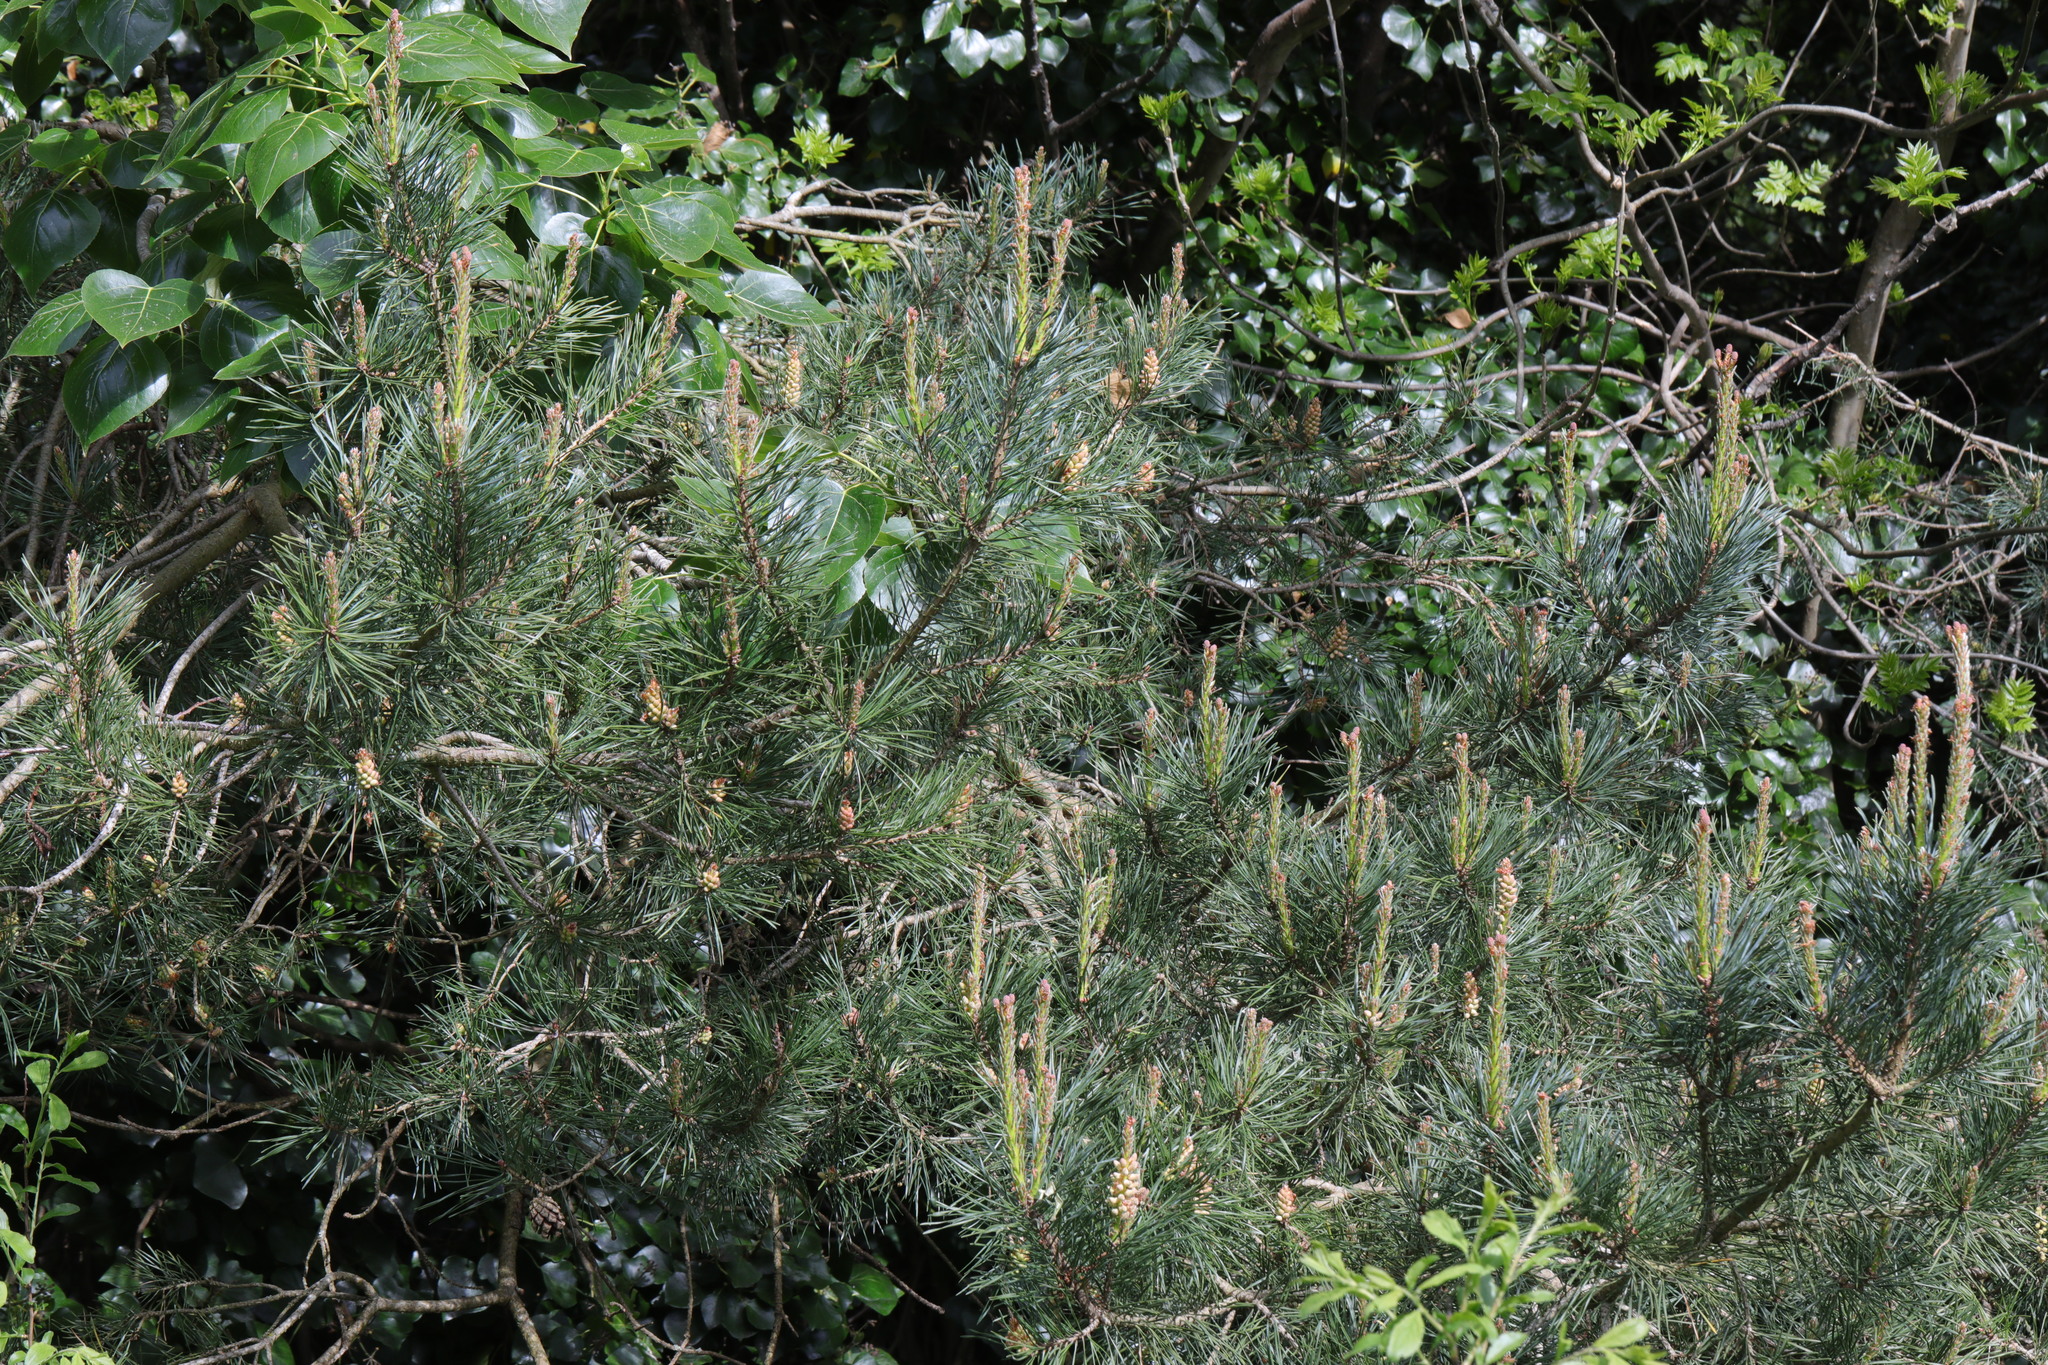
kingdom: Plantae
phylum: Tracheophyta
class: Pinopsida
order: Pinales
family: Pinaceae
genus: Pinus
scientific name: Pinus sylvestris
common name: Scots pine
